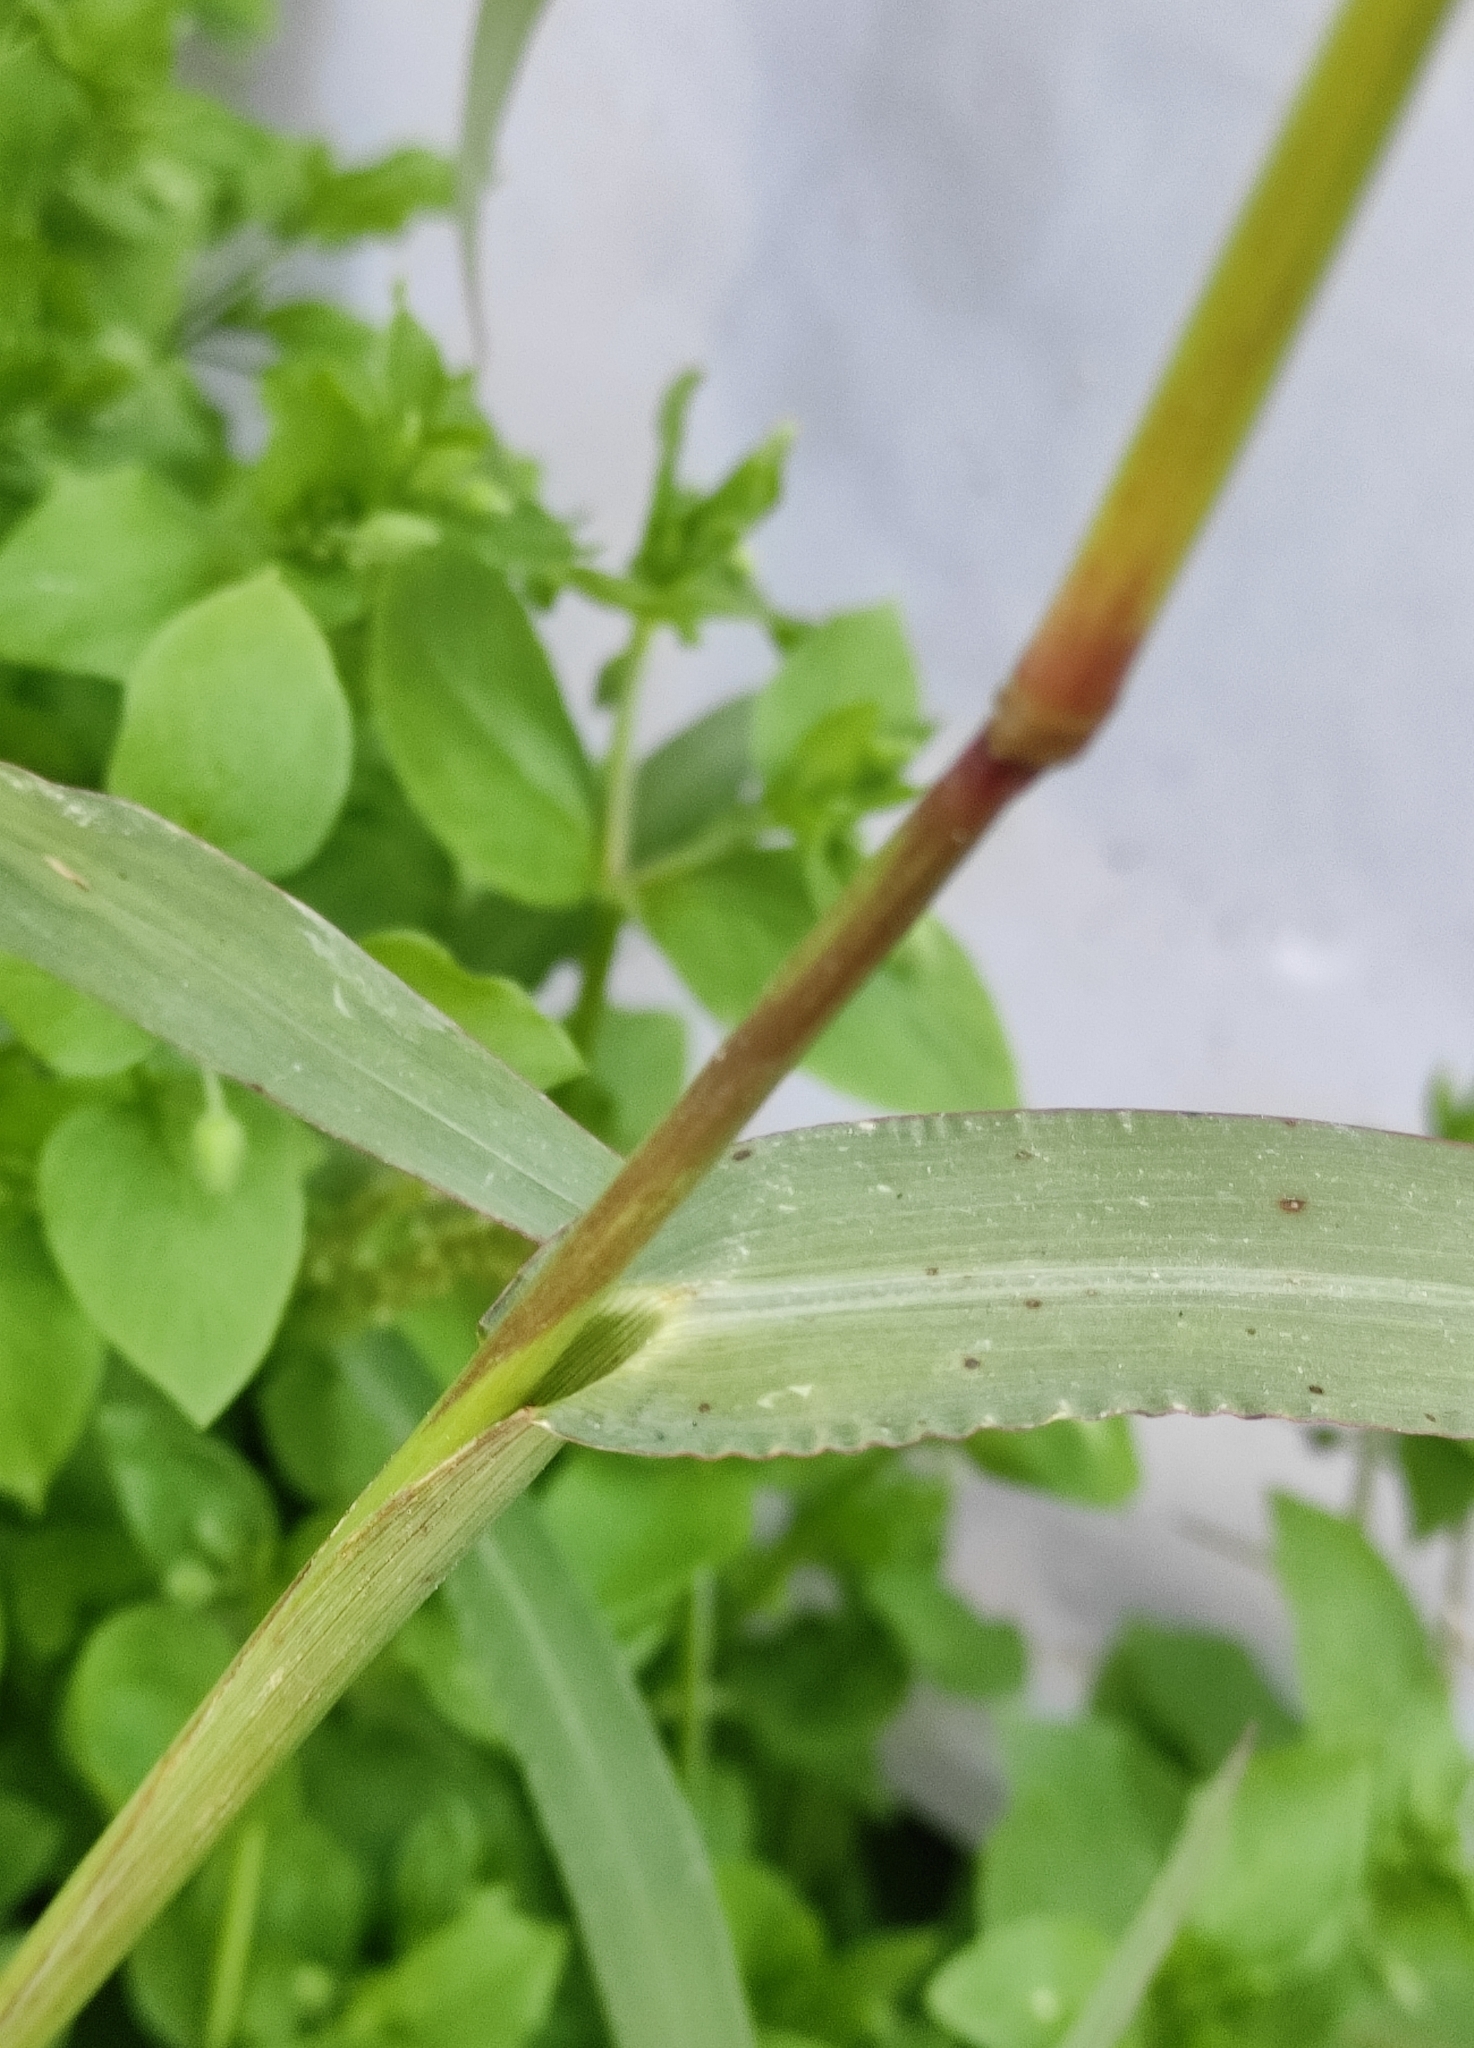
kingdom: Plantae
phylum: Tracheophyta
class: Liliopsida
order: Poales
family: Poaceae
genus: Echinochloa
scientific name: Echinochloa crus-galli
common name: Cockspur
